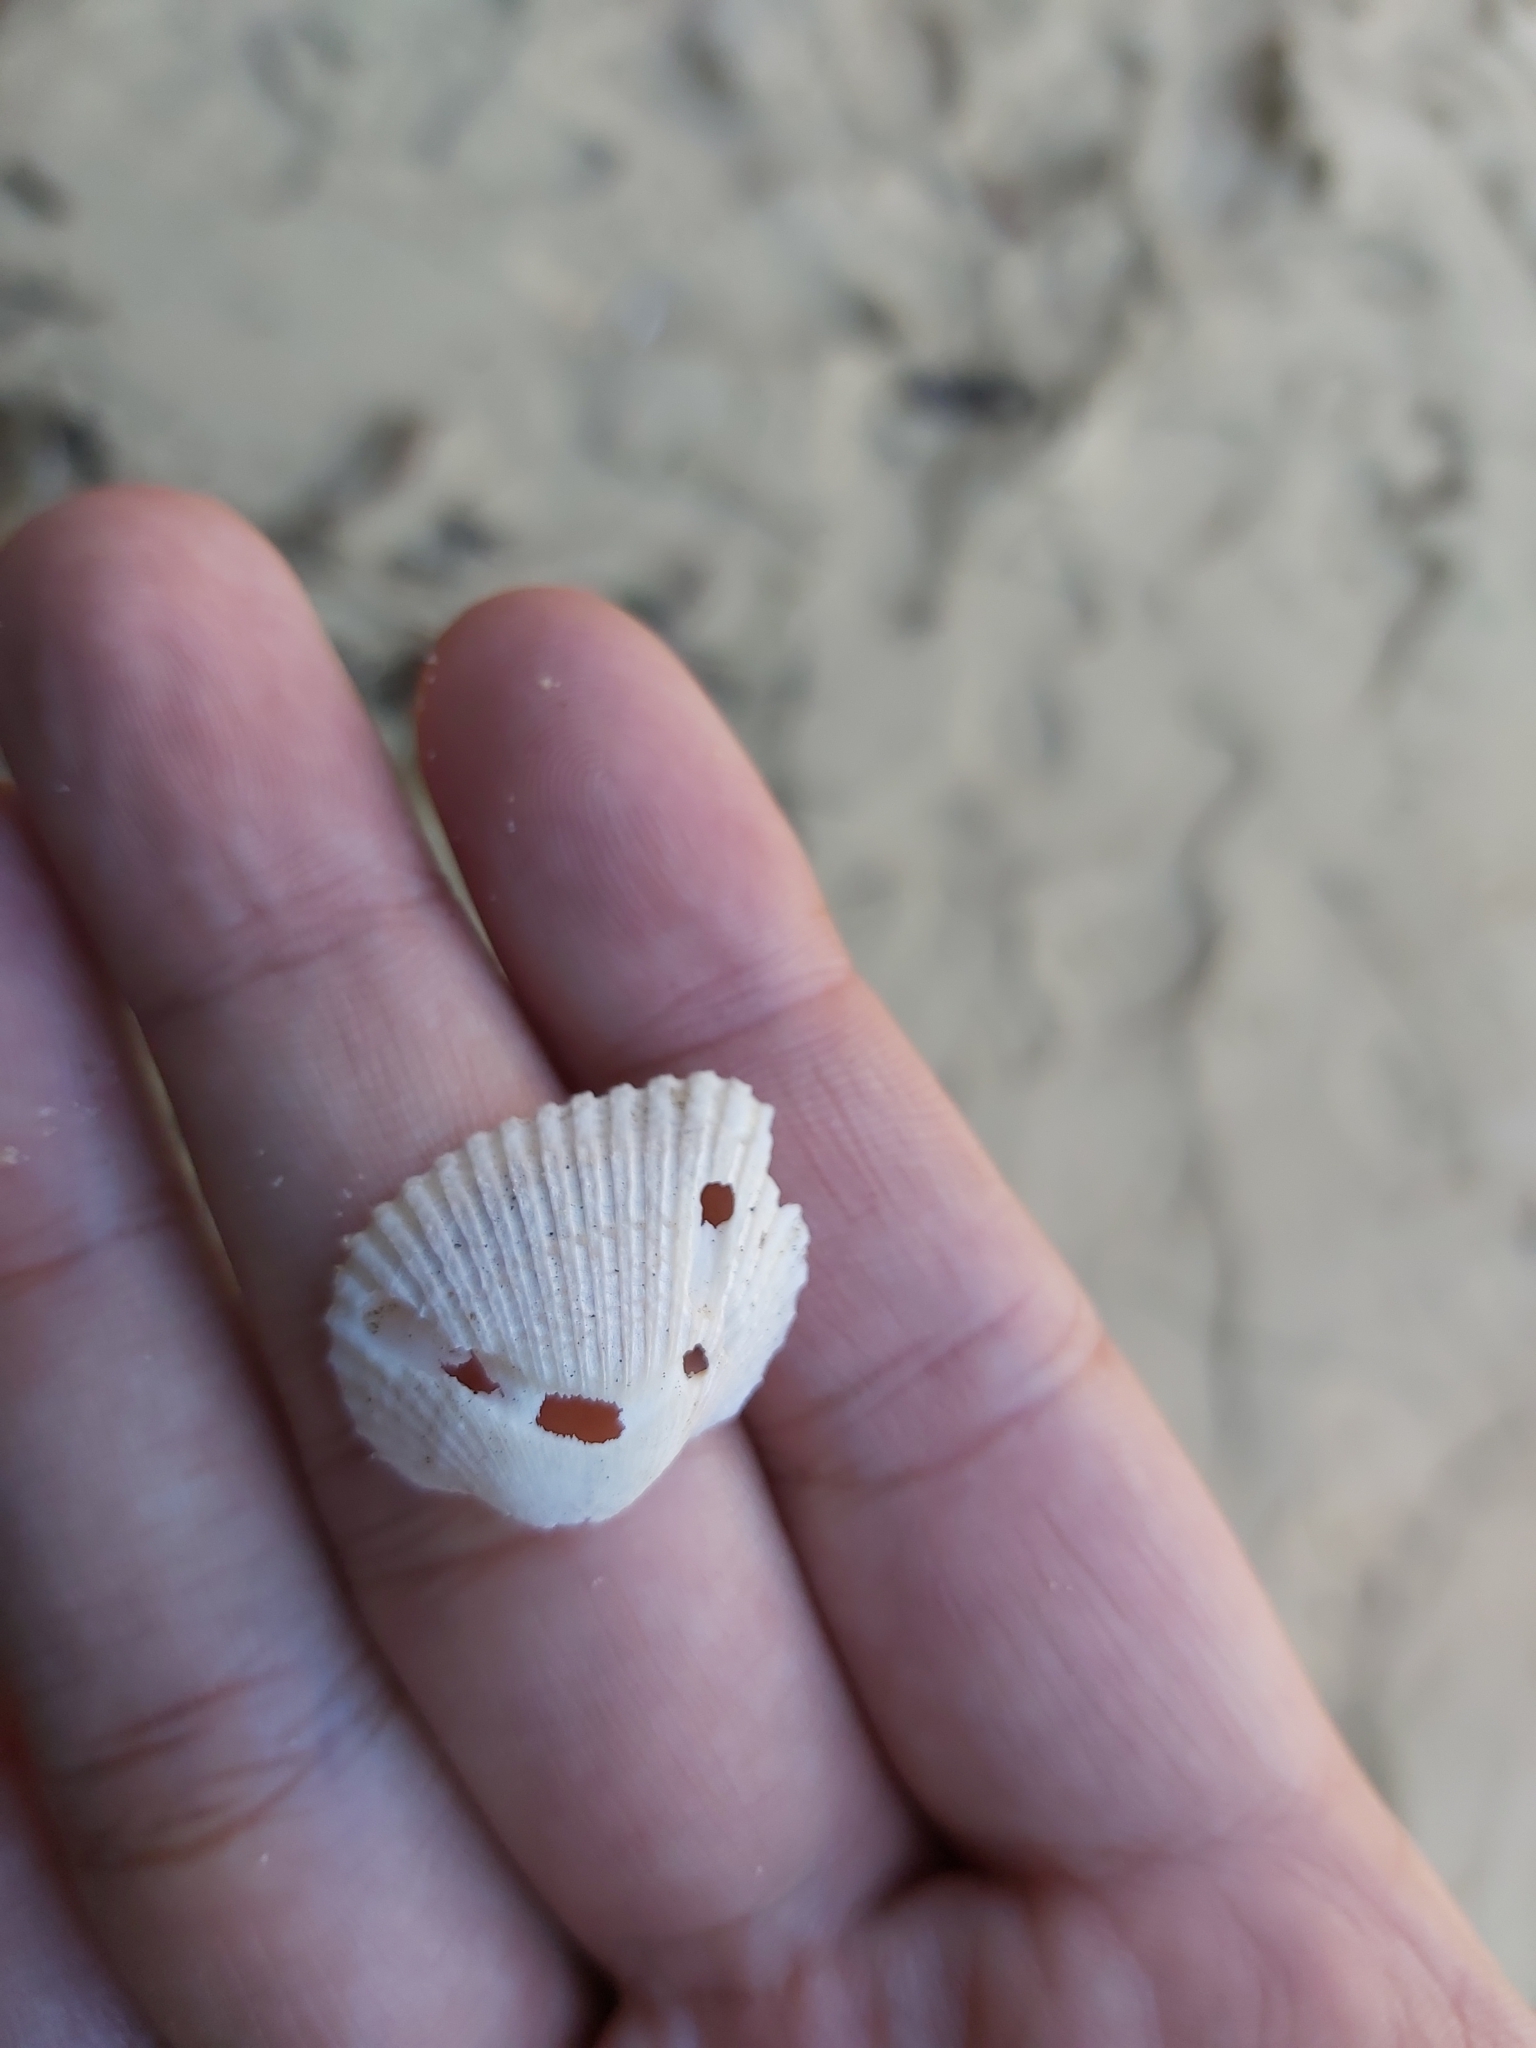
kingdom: Animalia
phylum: Mollusca
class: Bivalvia
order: Arcida
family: Arcidae
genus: Anadara
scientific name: Anadara trapezia
